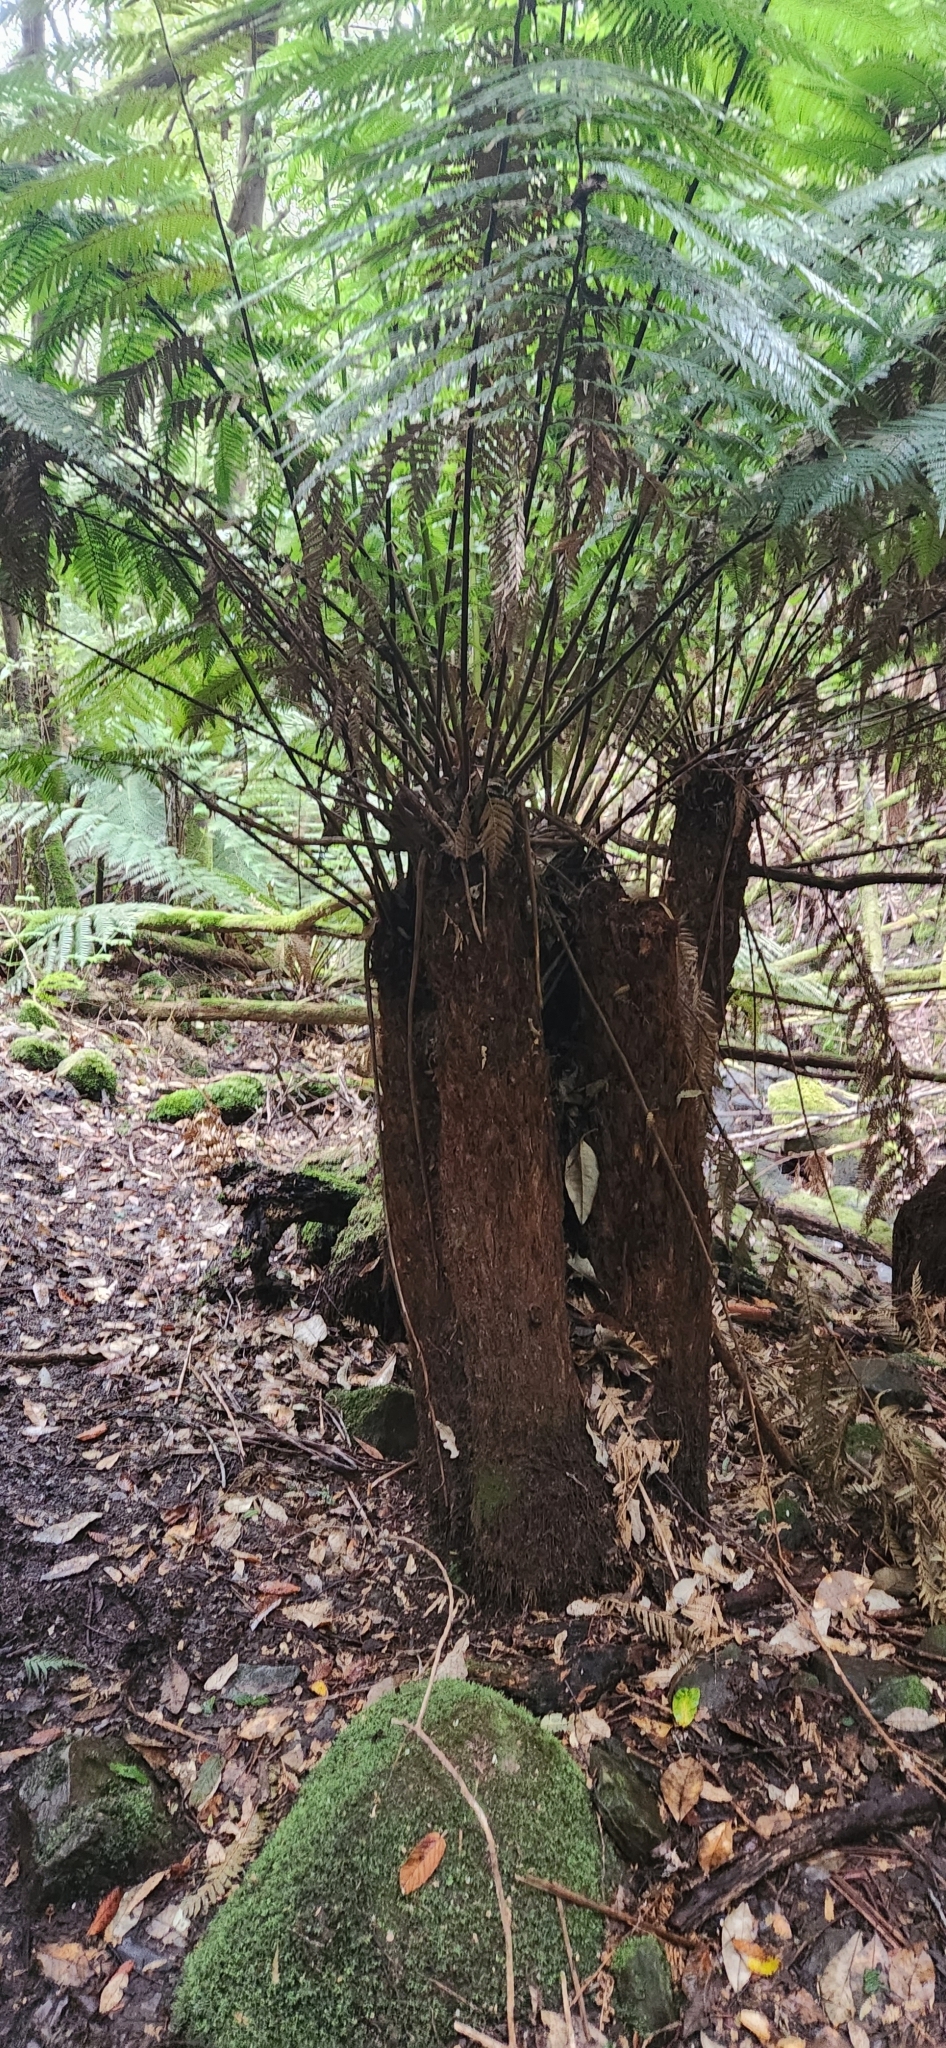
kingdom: Plantae
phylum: Tracheophyta
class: Polypodiopsida
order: Cyatheales
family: Dicksoniaceae
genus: Dicksonia
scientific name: Dicksonia antarctica
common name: Australian treefern
